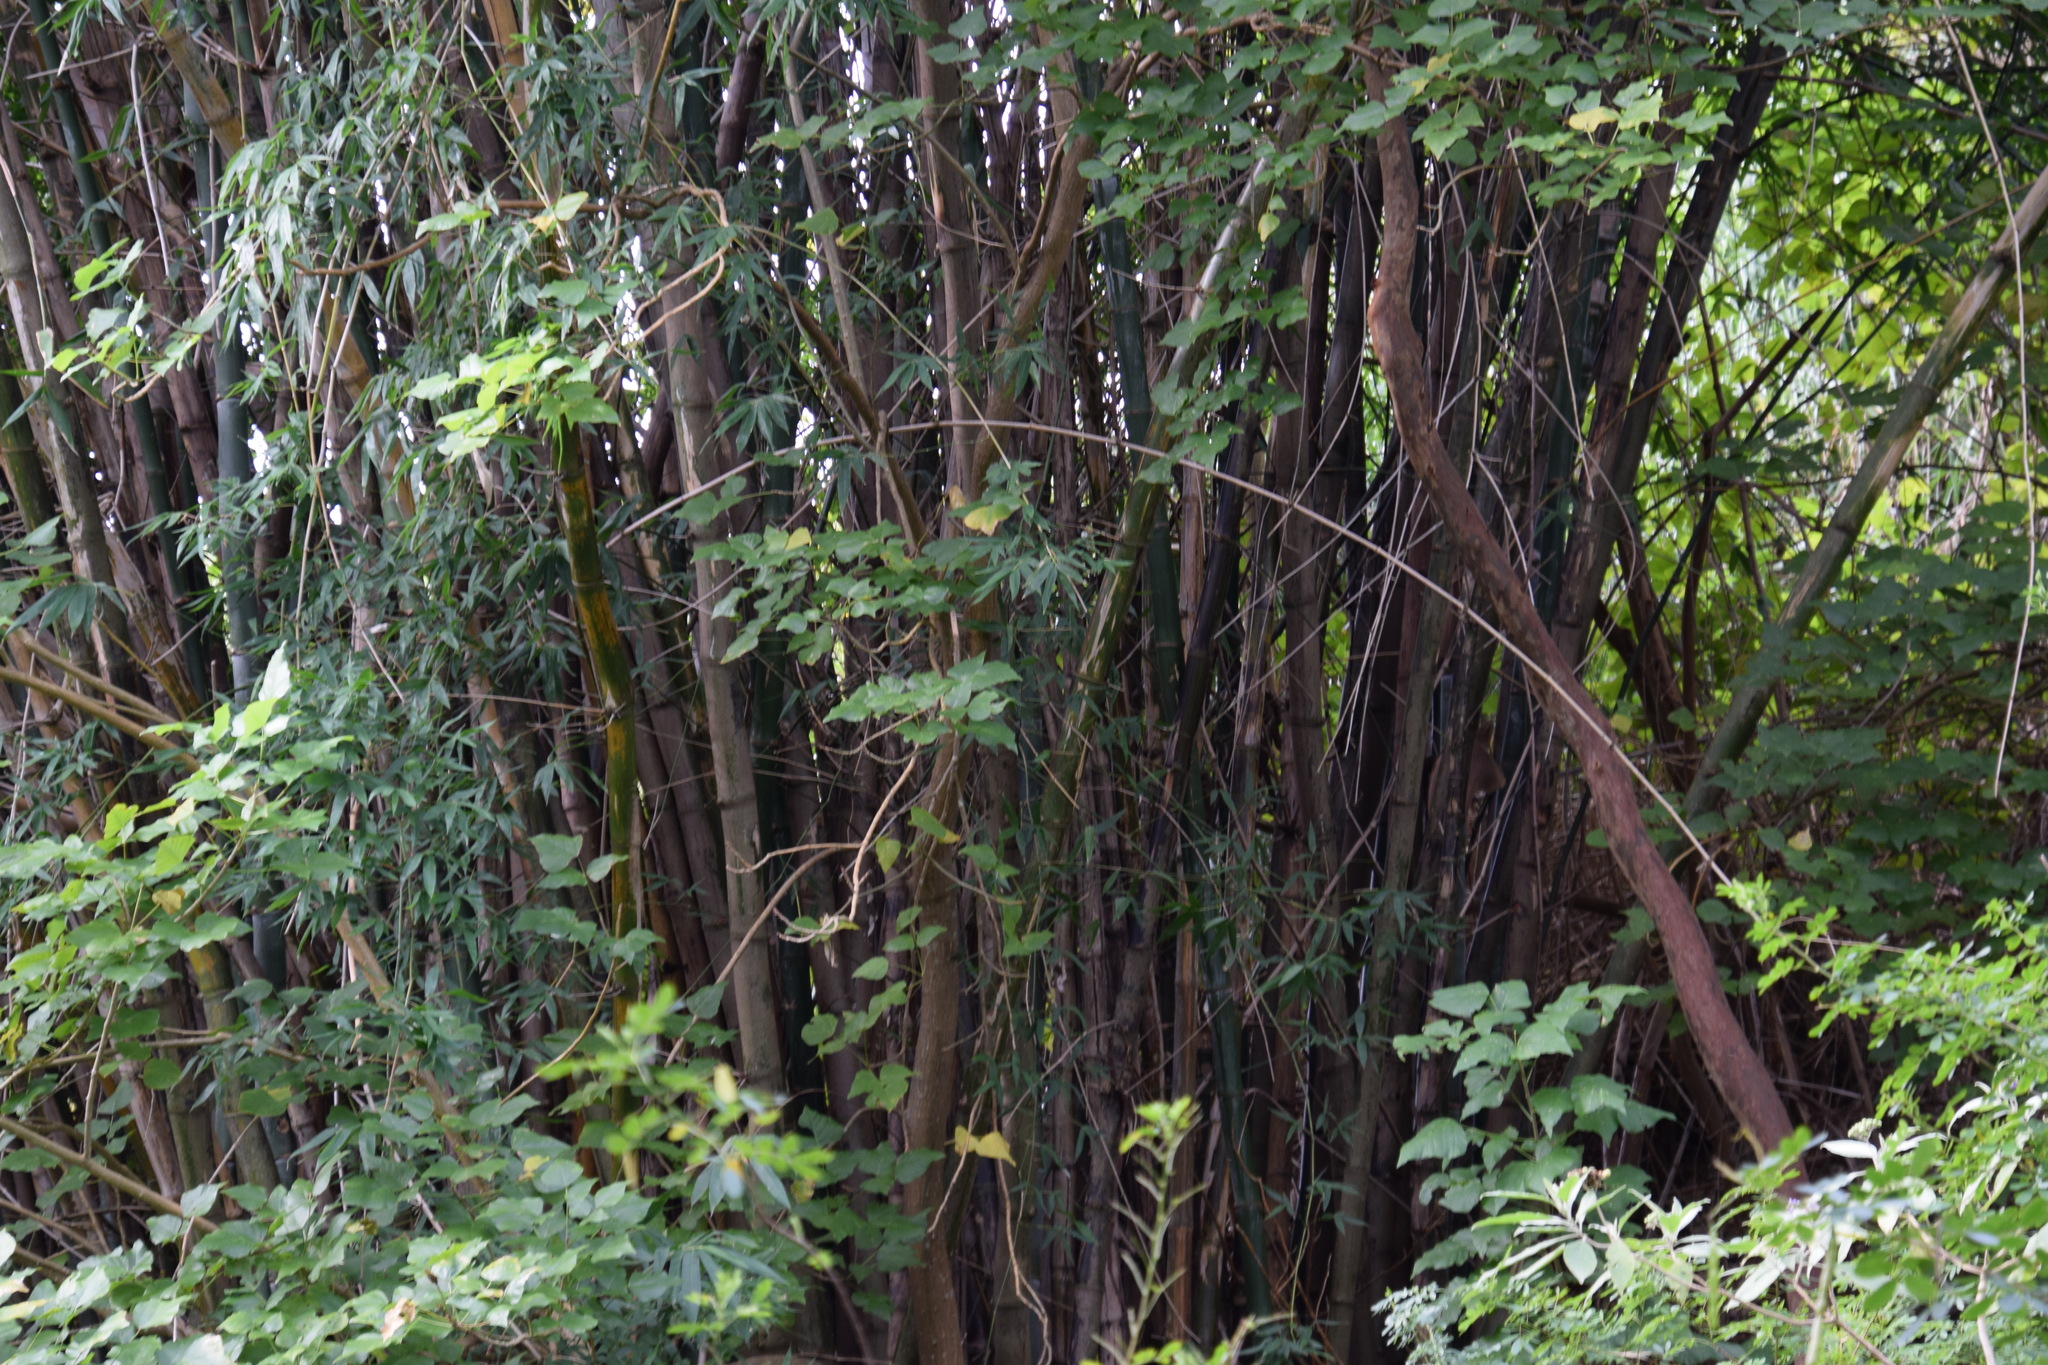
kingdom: Plantae
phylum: Tracheophyta
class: Liliopsida
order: Poales
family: Poaceae
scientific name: Poaceae
